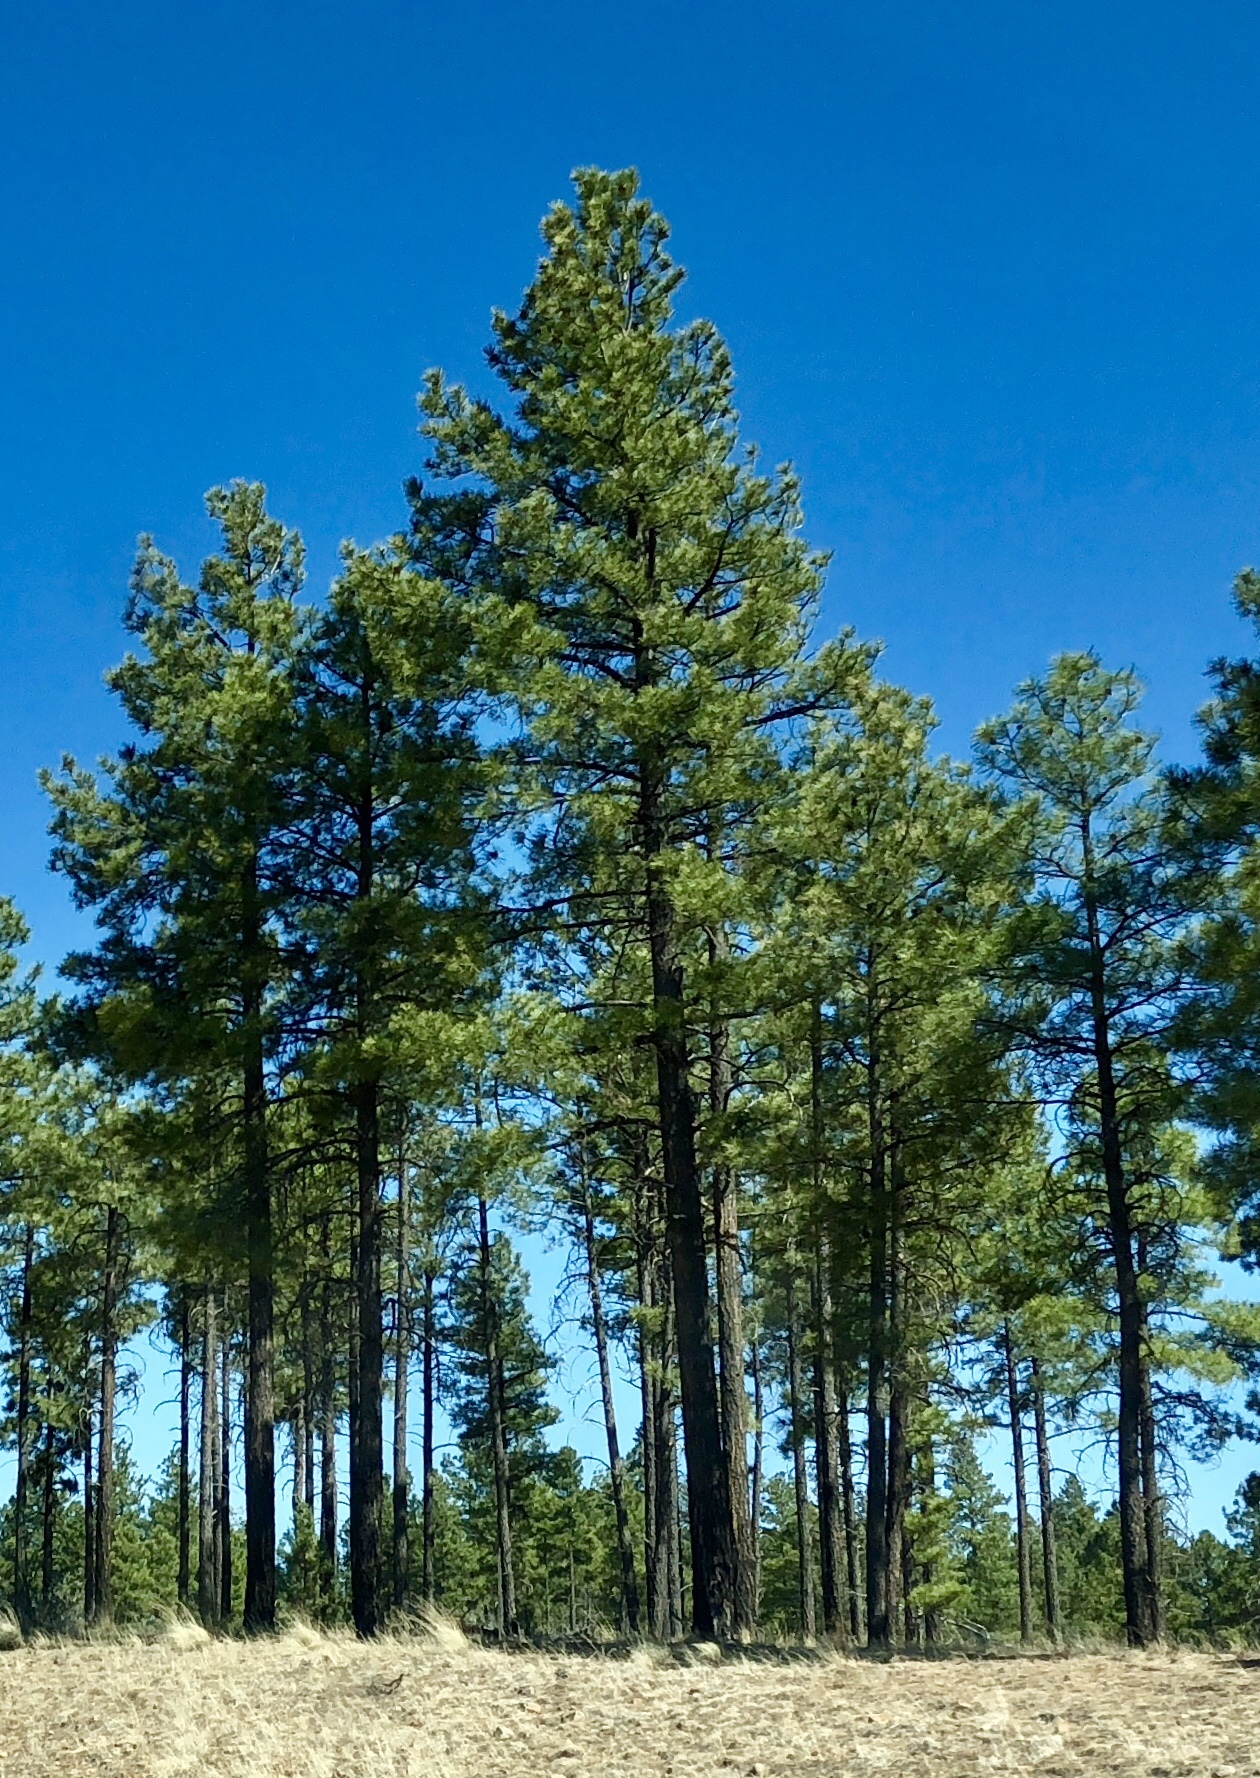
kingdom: Plantae
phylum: Tracheophyta
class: Pinopsida
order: Pinales
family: Pinaceae
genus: Pinus
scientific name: Pinus ponderosa
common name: Western yellow-pine
